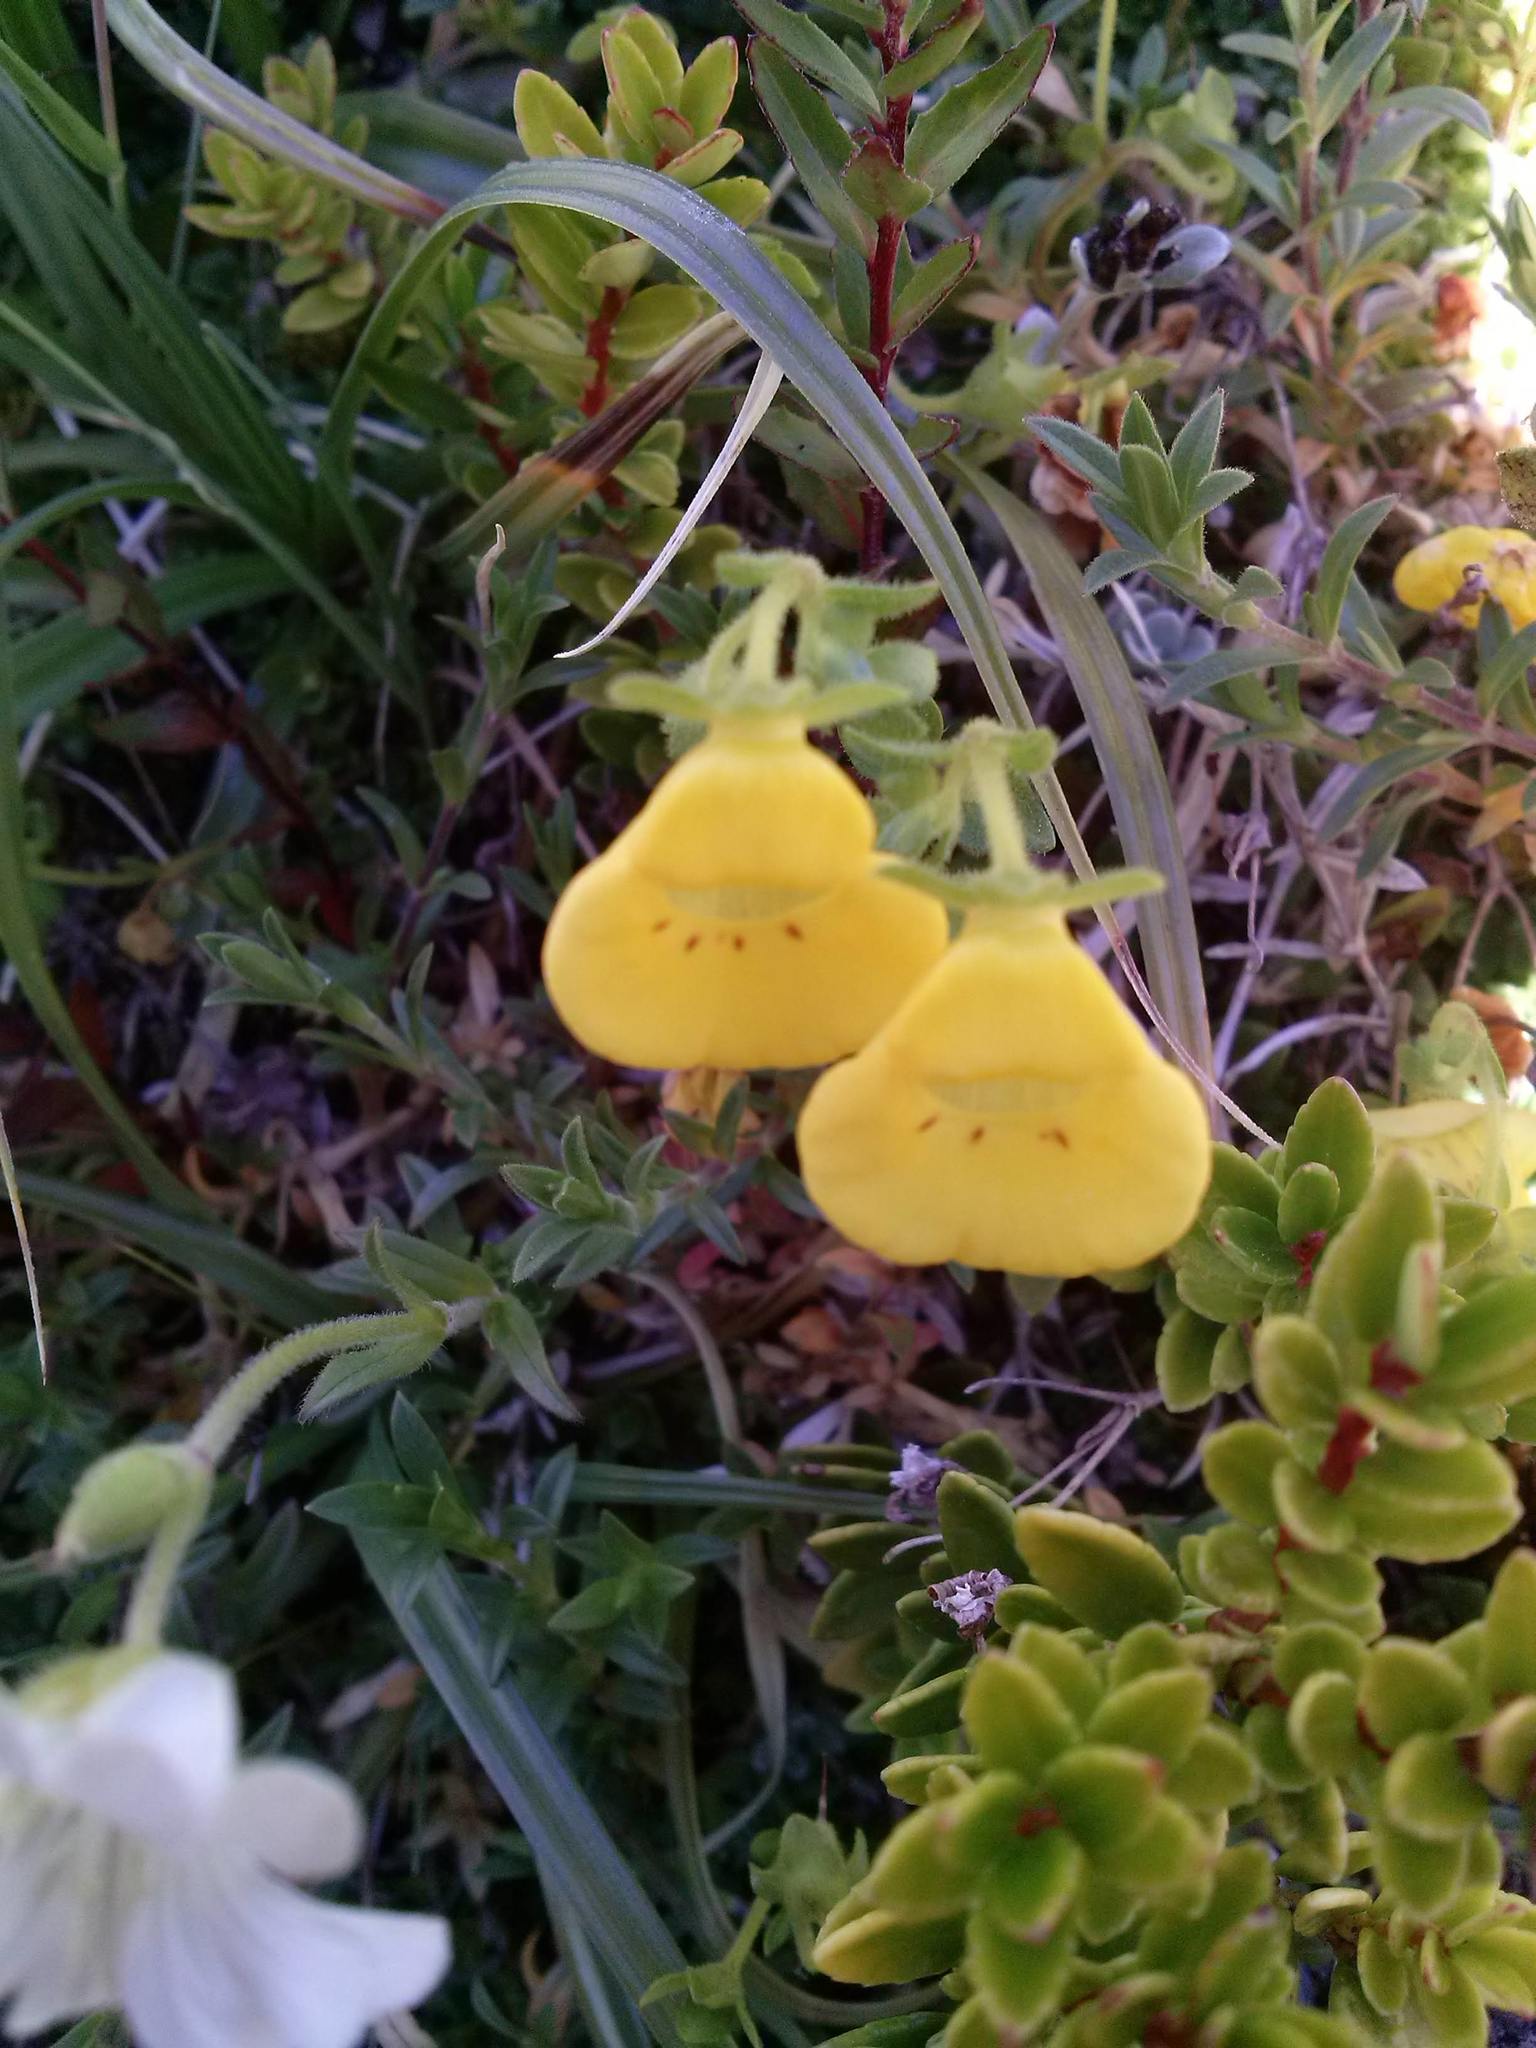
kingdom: Plantae
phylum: Tracheophyta
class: Magnoliopsida
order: Lamiales
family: Calceolariaceae
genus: Calceolaria
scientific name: Calceolaria tenella
